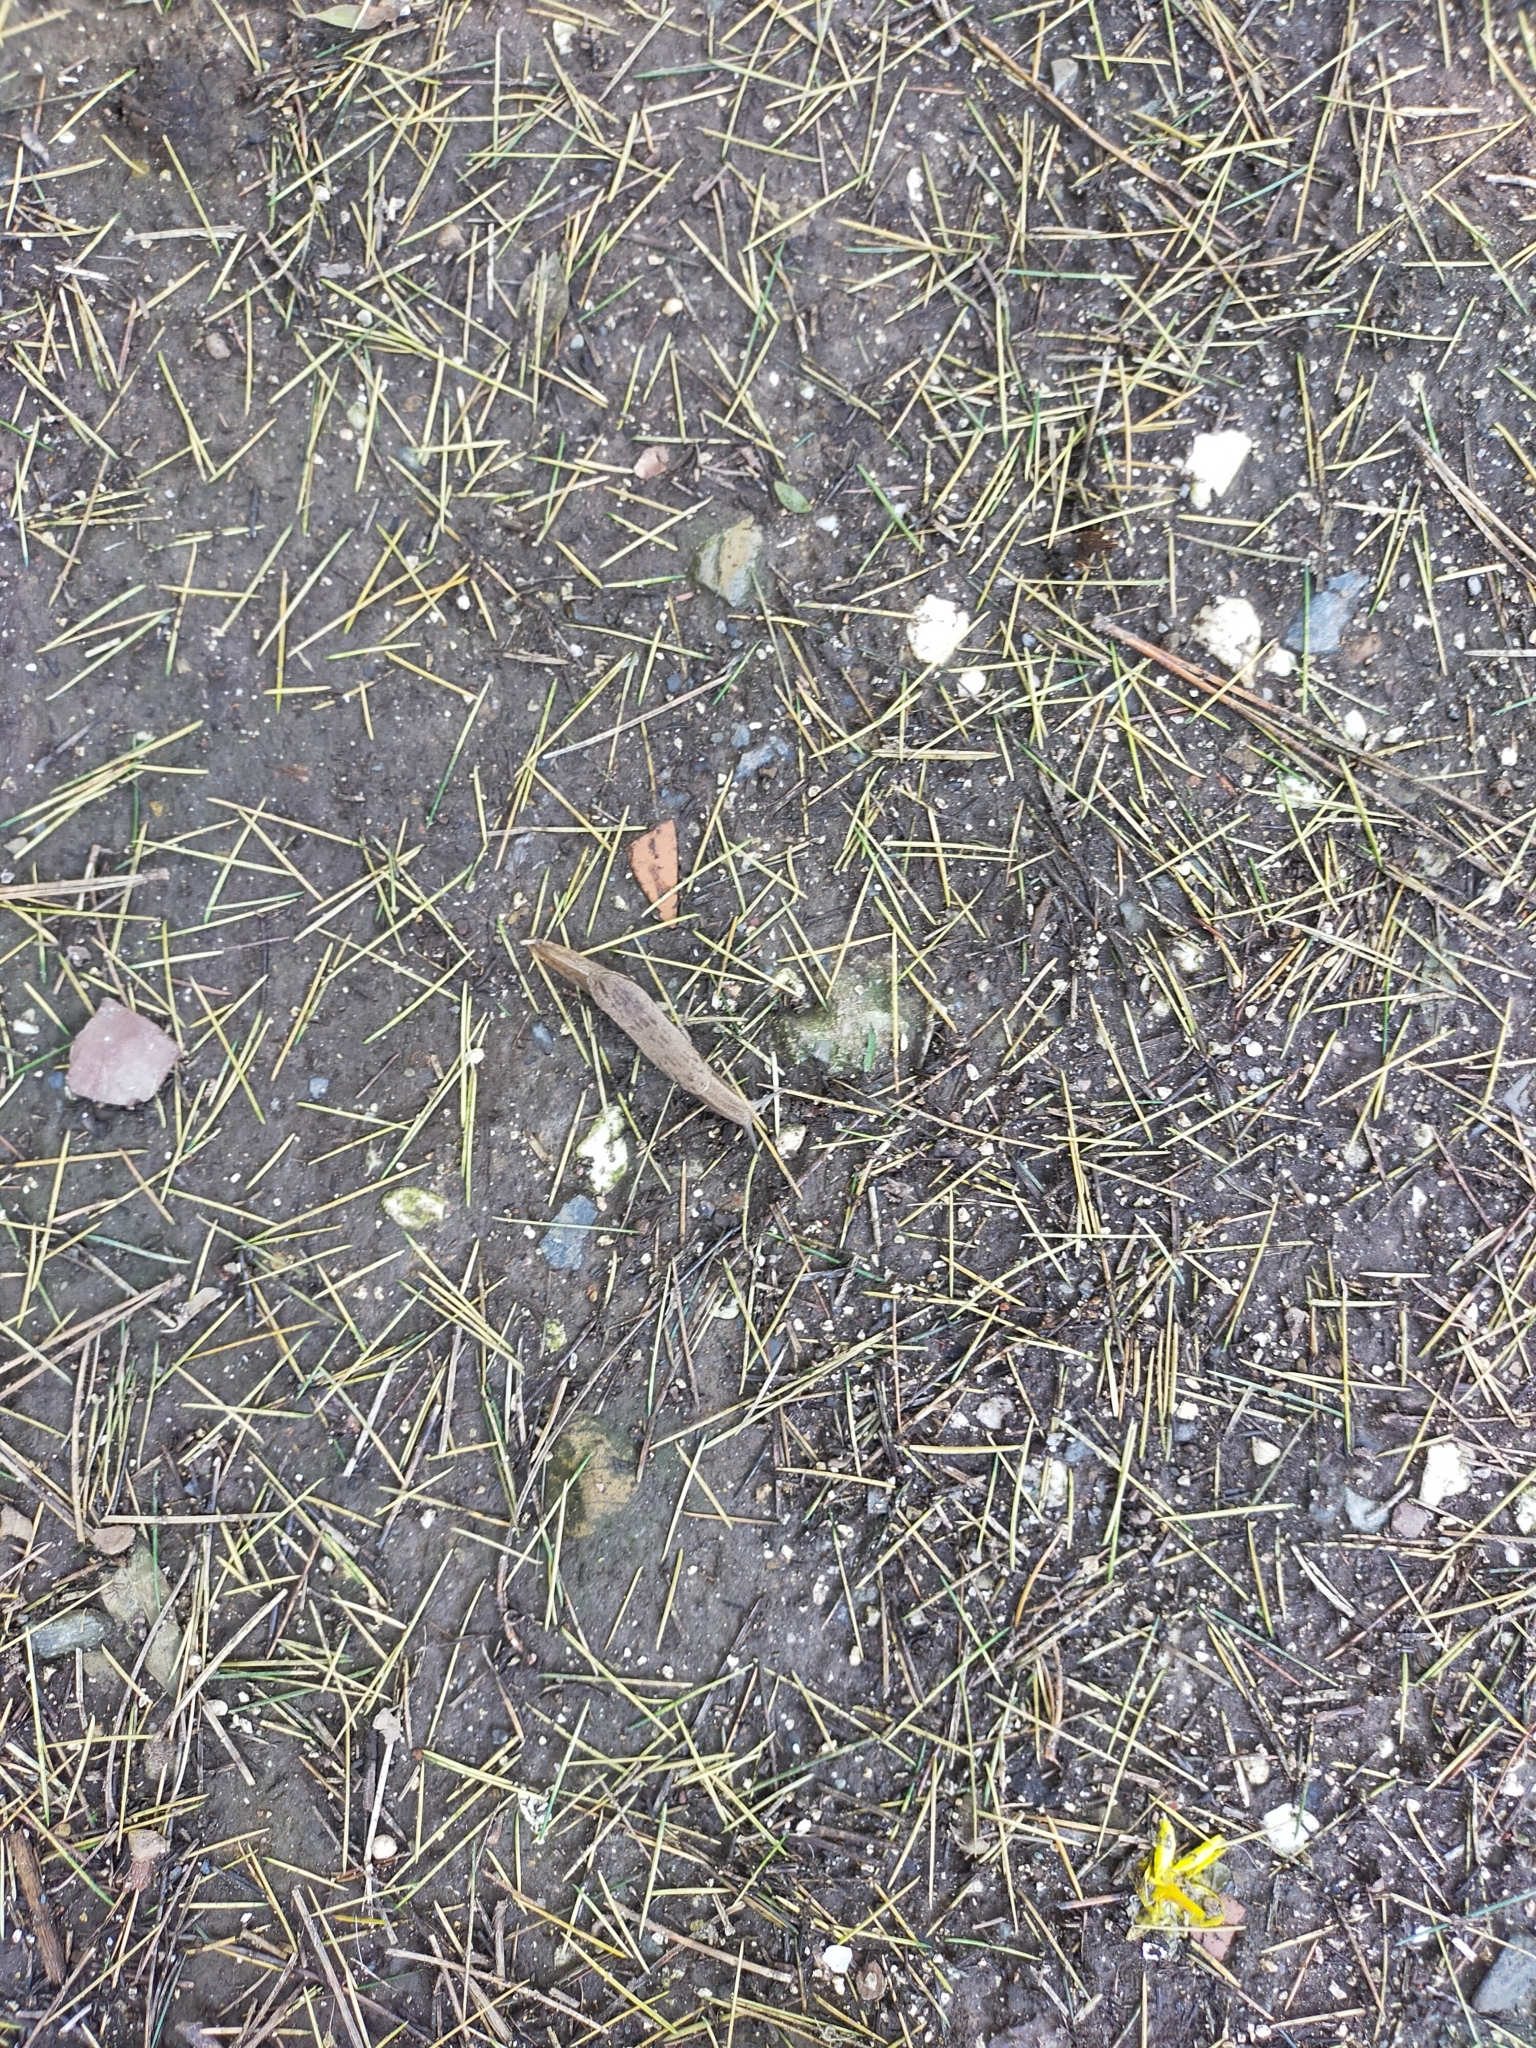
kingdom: Animalia
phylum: Mollusca
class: Gastropoda
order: Stylommatophora
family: Parmacellidae
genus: Drusia
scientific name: Drusia ibera
